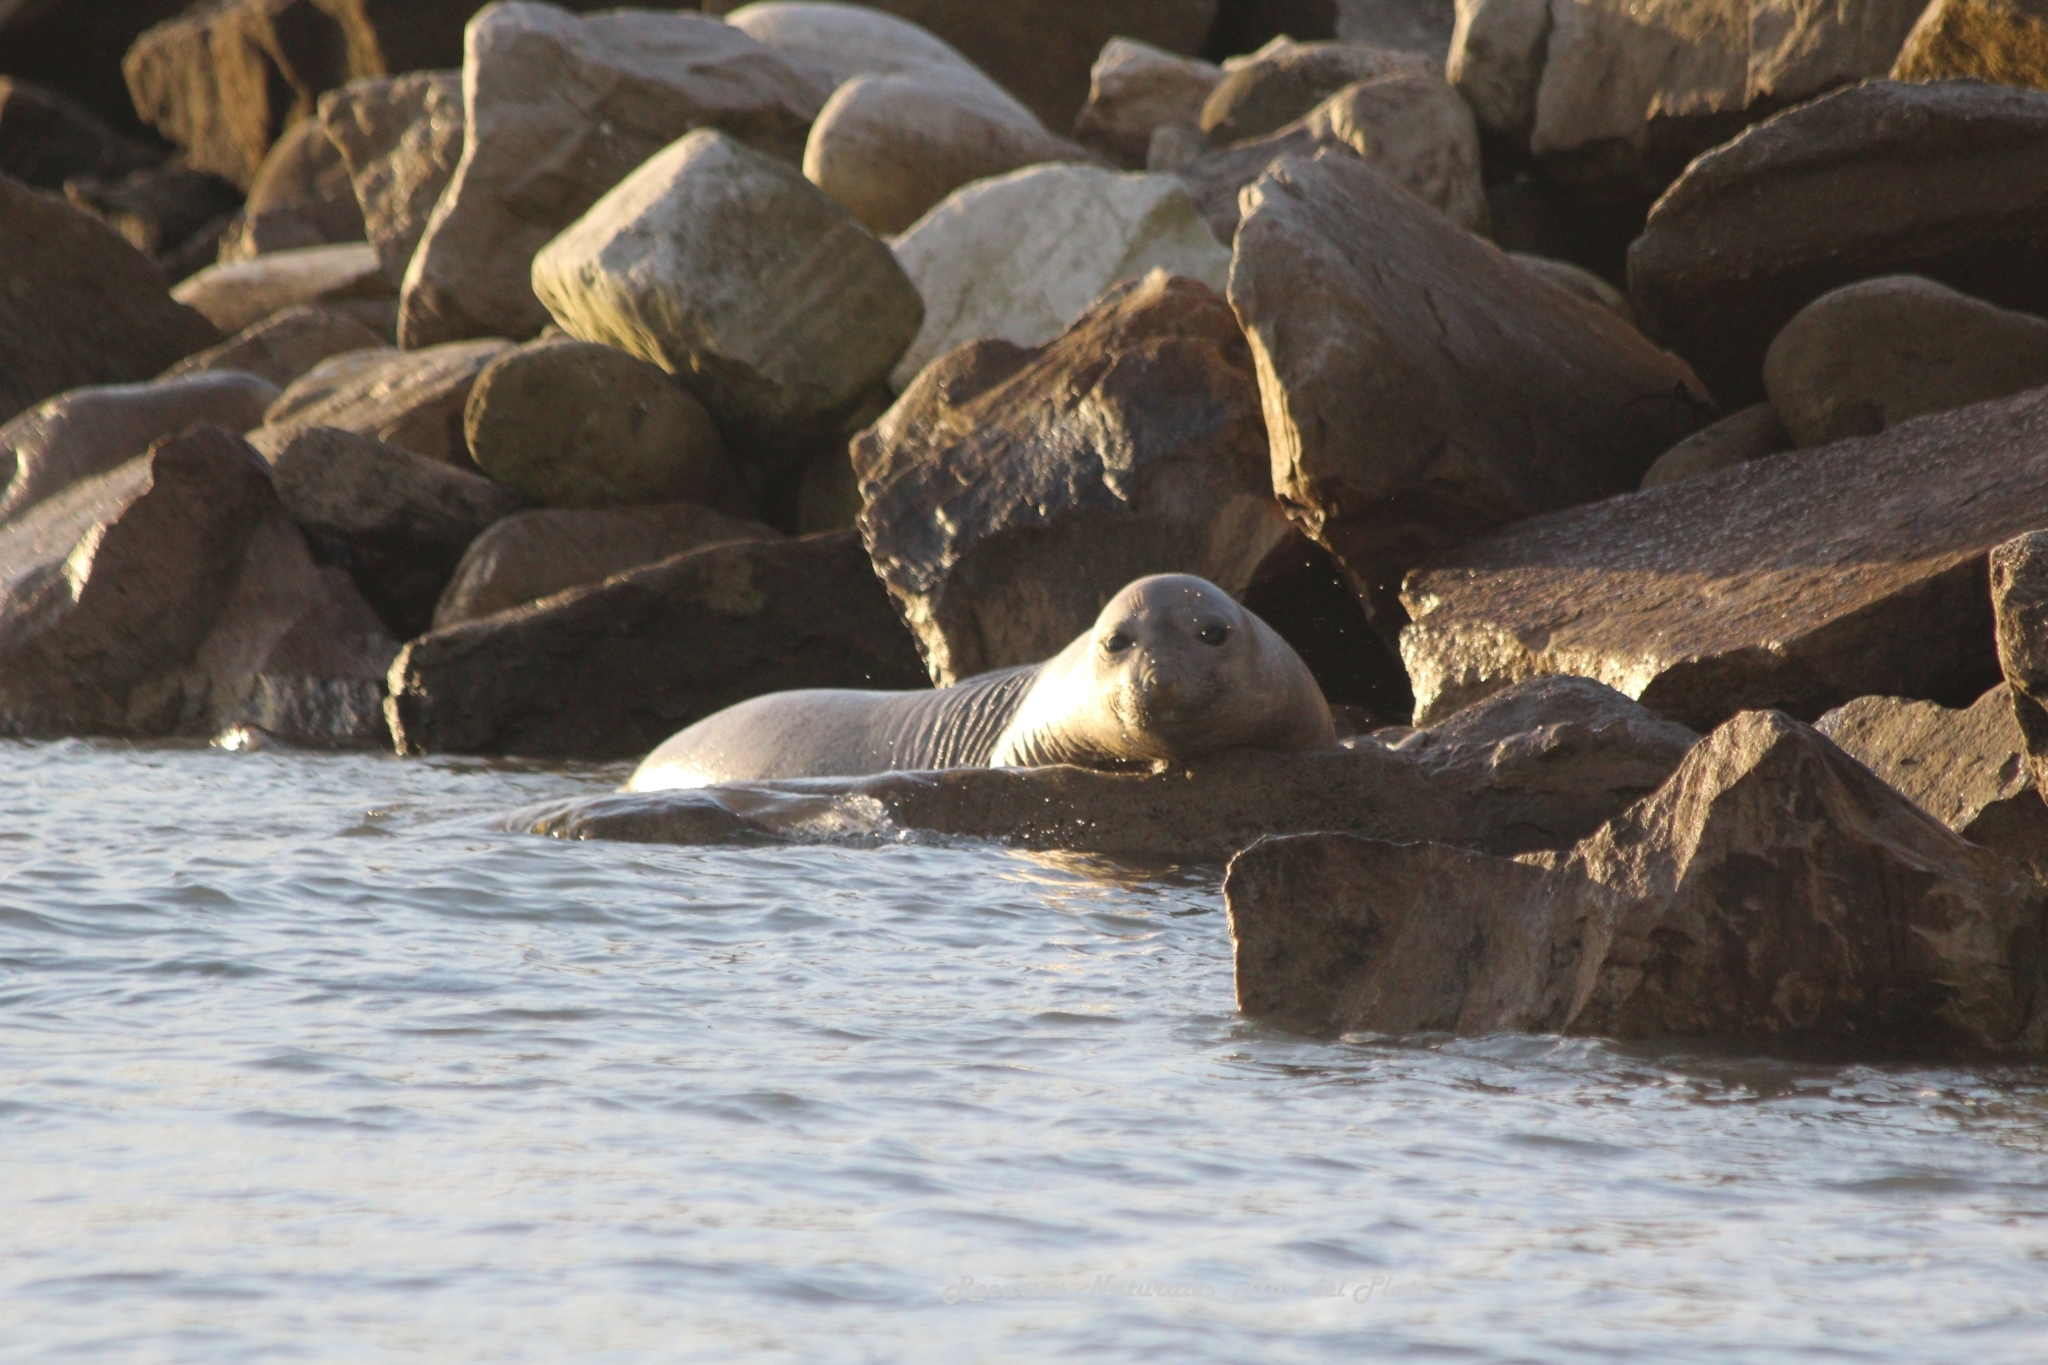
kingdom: Animalia
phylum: Chordata
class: Mammalia
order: Carnivora
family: Phocidae
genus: Mirounga
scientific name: Mirounga leonina
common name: Southern elephant seal
